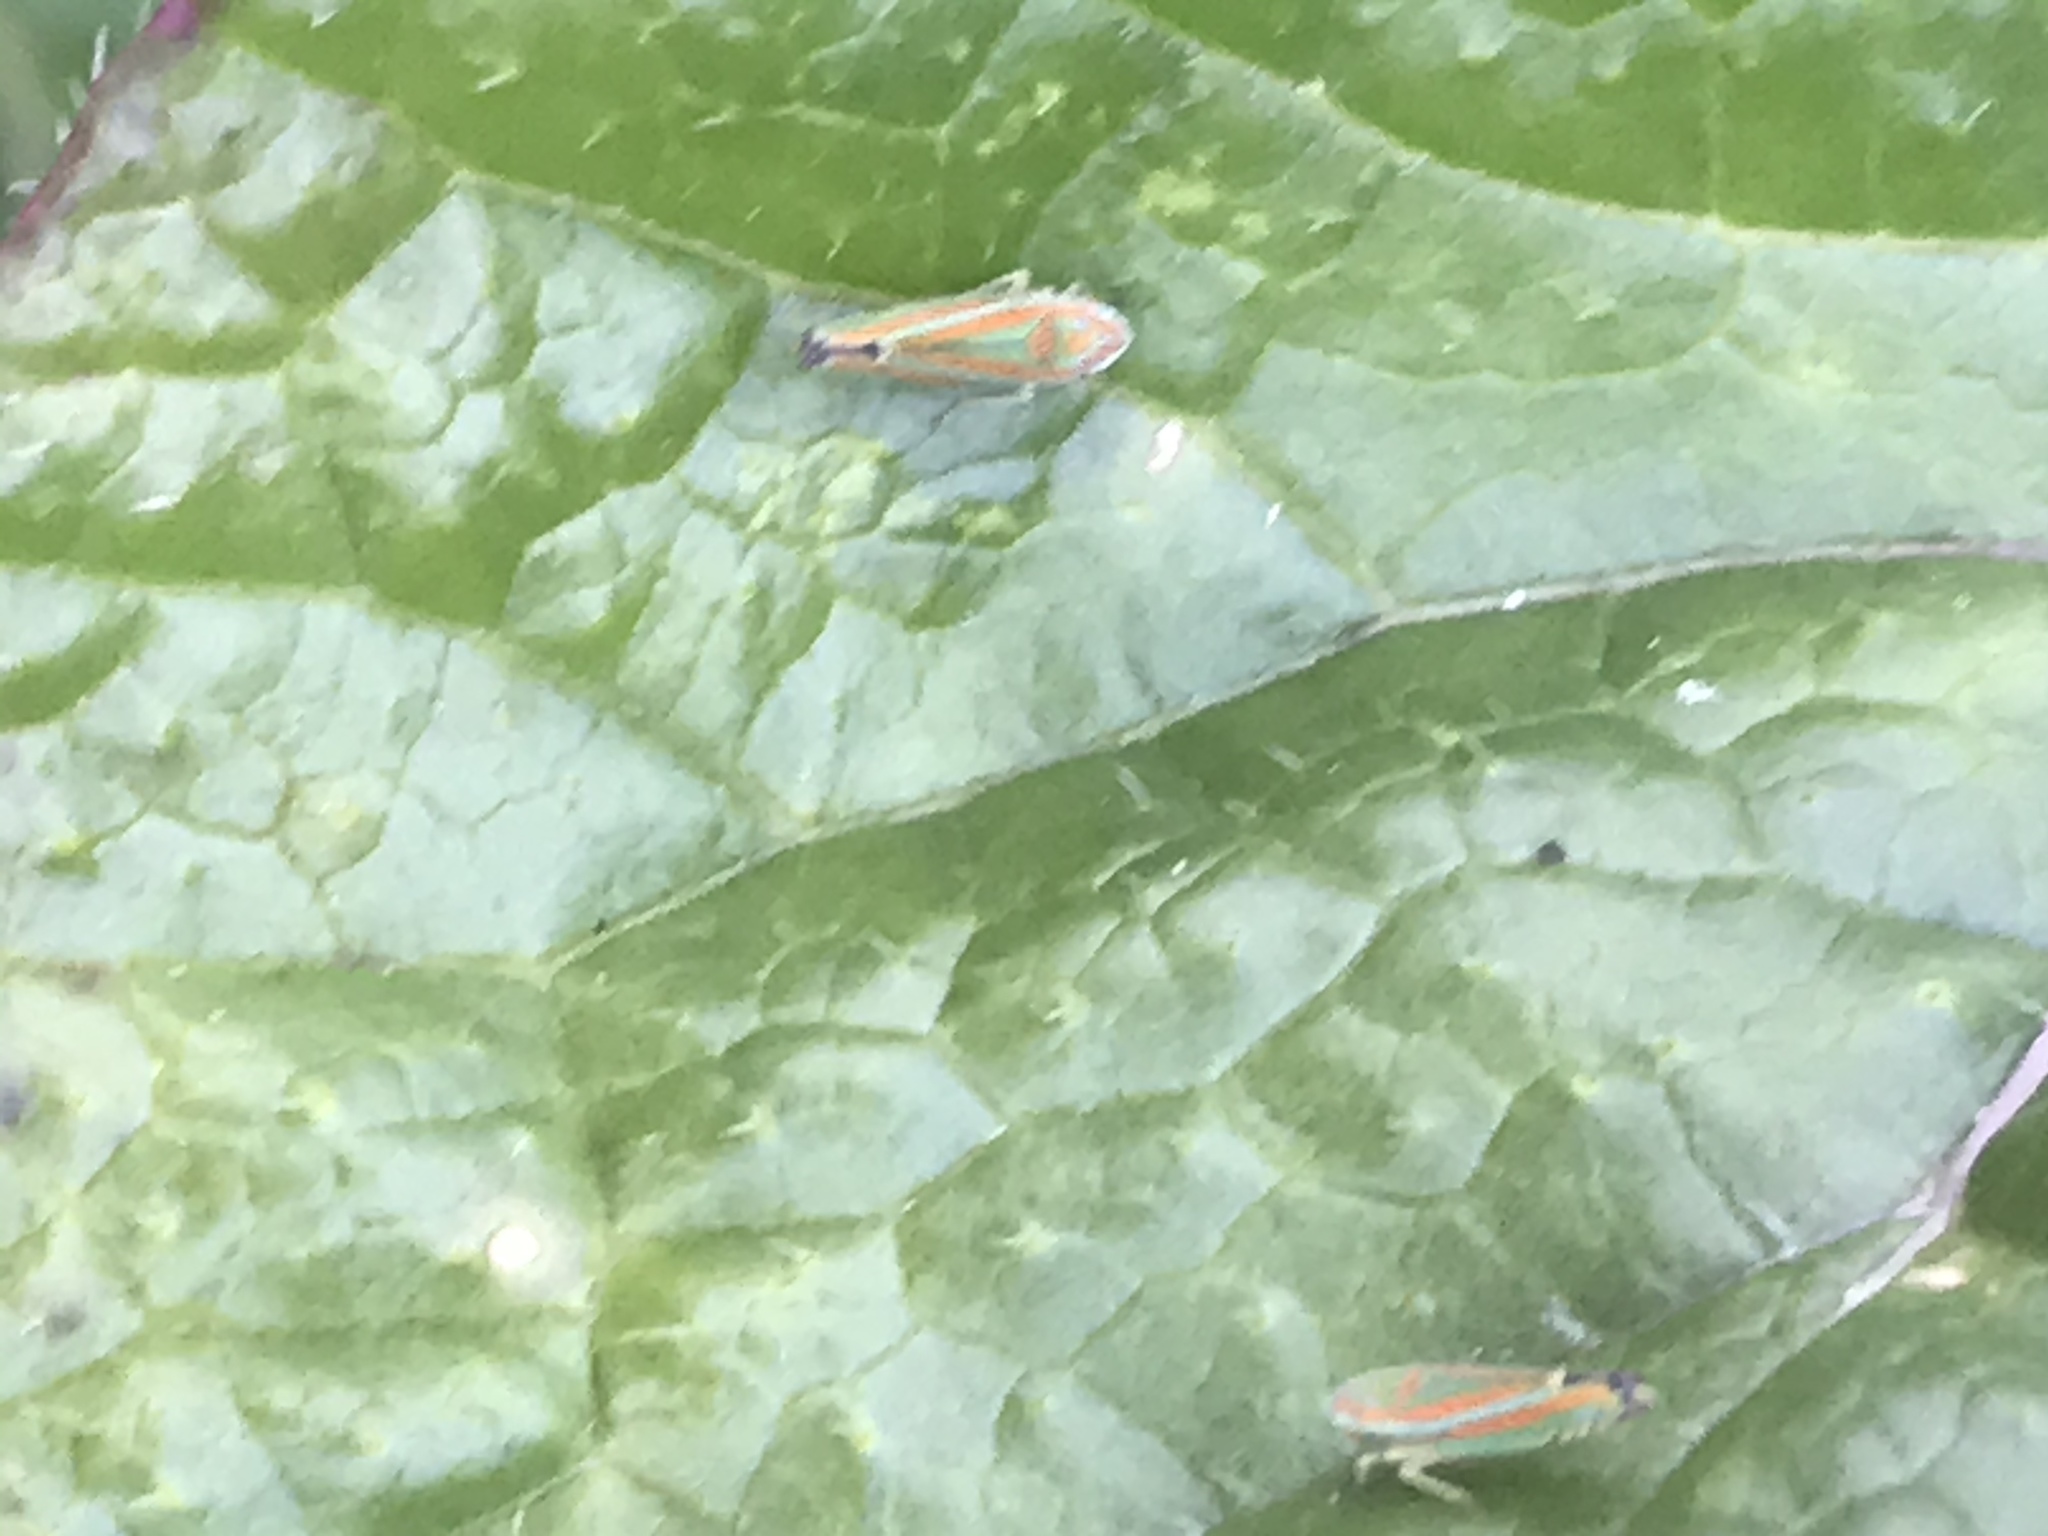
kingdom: Animalia
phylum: Arthropoda
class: Insecta
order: Hemiptera
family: Cicadellidae
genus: Graphocephala
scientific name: Graphocephala versuta
